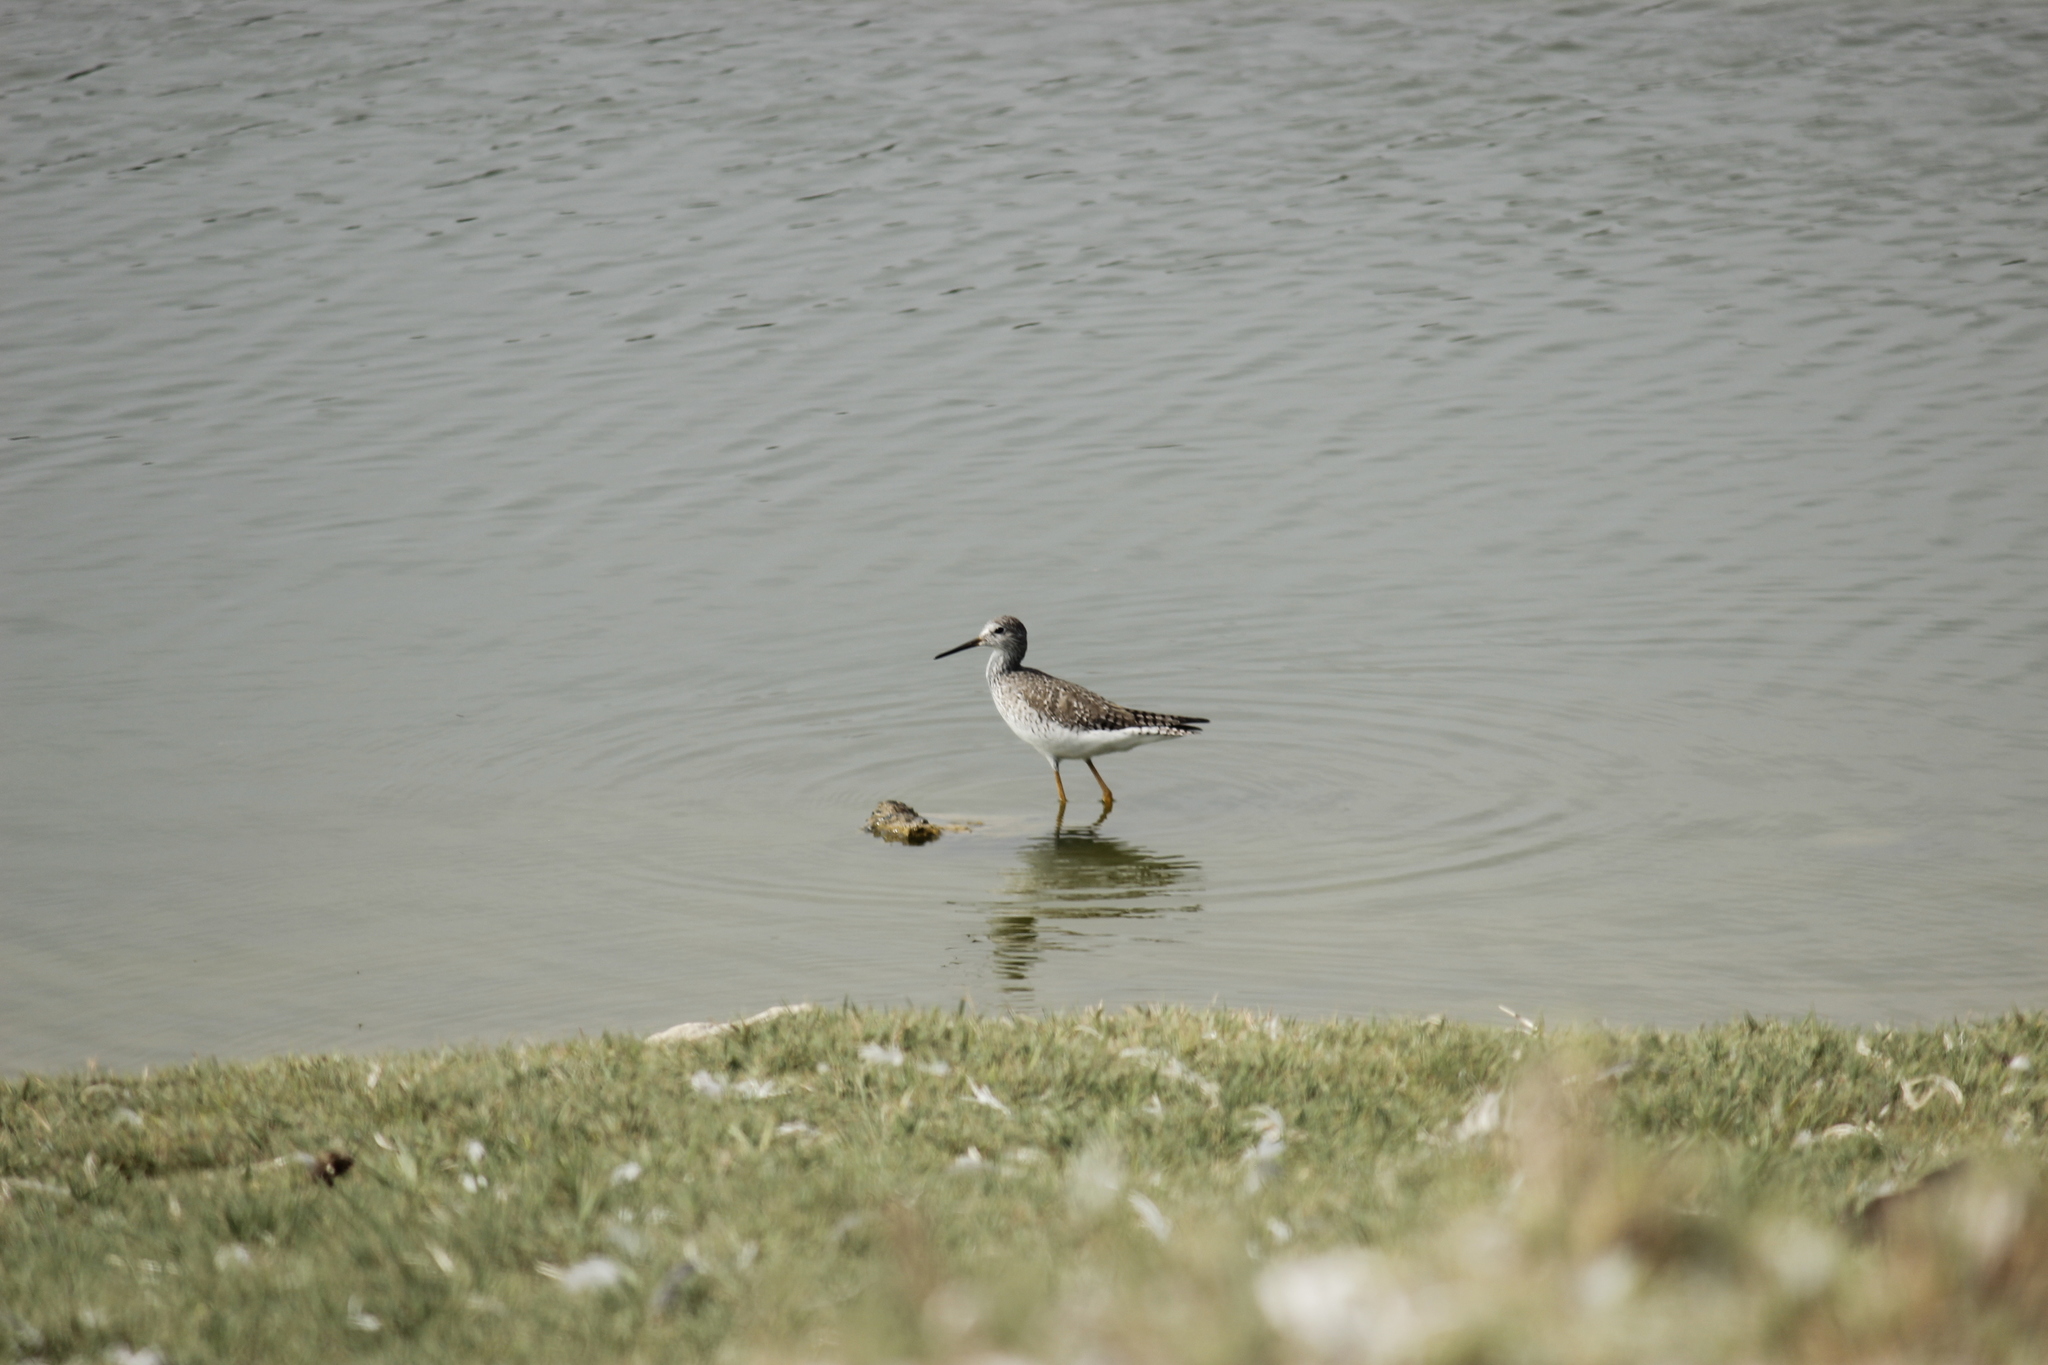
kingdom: Animalia
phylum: Chordata
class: Aves
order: Charadriiformes
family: Scolopacidae
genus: Tringa
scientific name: Tringa melanoleuca
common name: Greater yellowlegs
